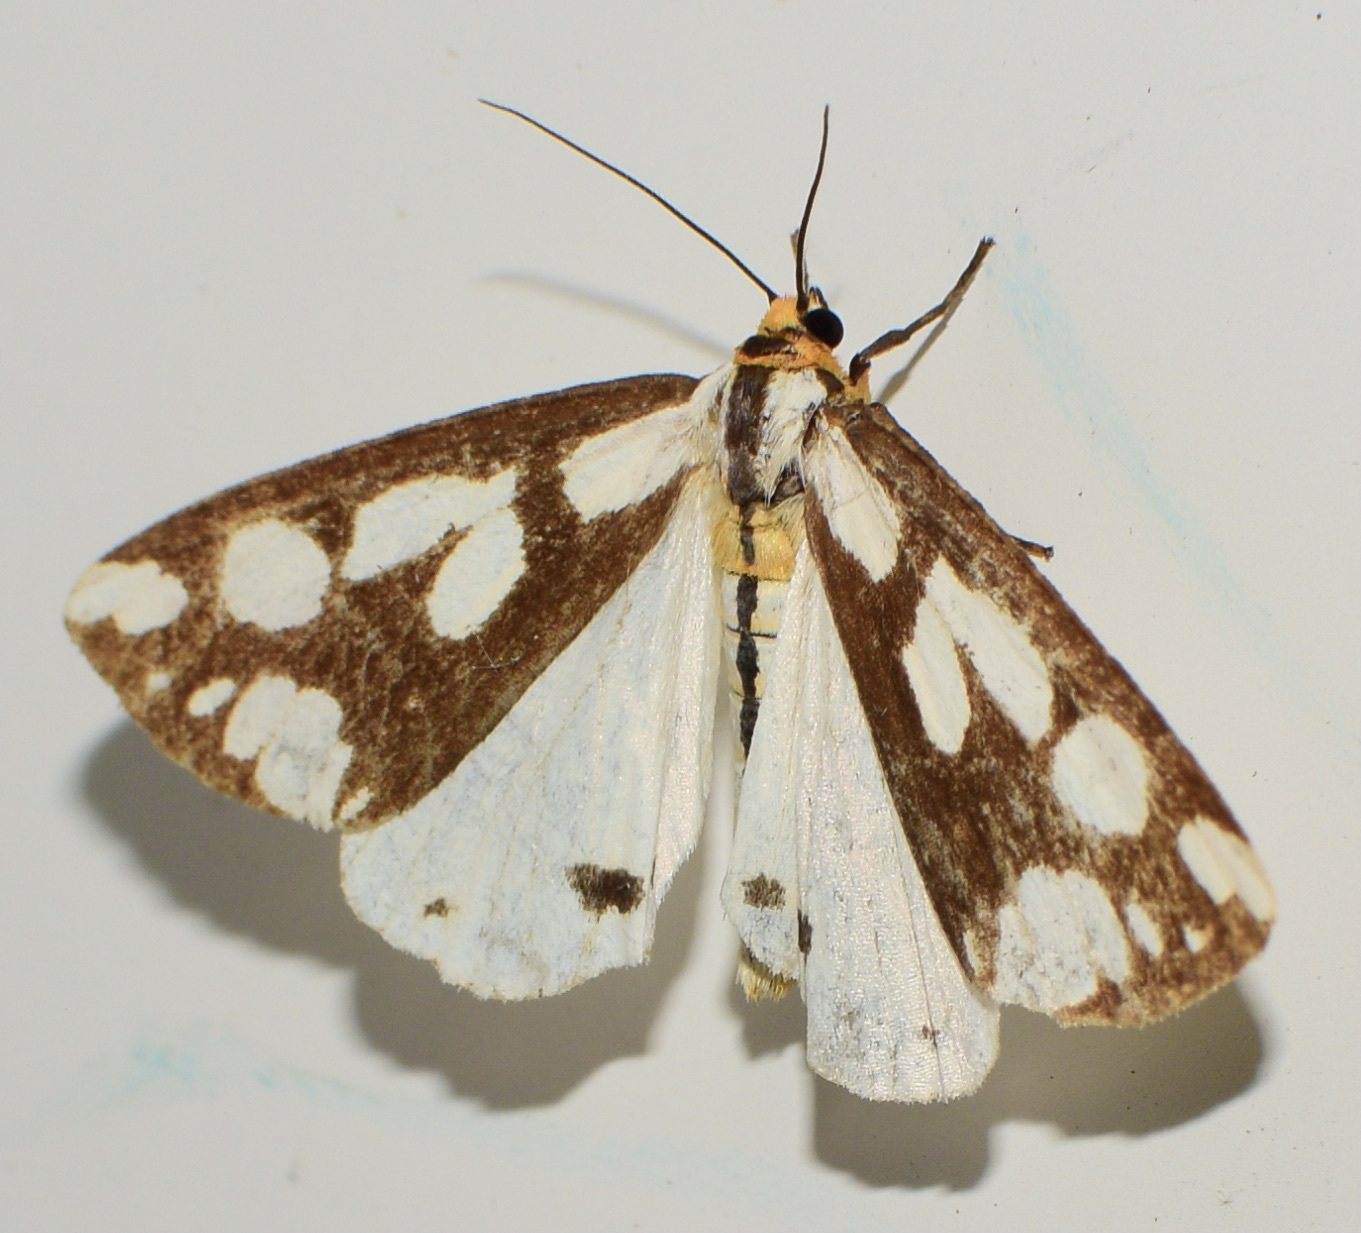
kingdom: Animalia
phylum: Arthropoda
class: Insecta
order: Lepidoptera
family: Erebidae
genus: Haploa
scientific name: Haploa confusa
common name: Confused haploa moth
